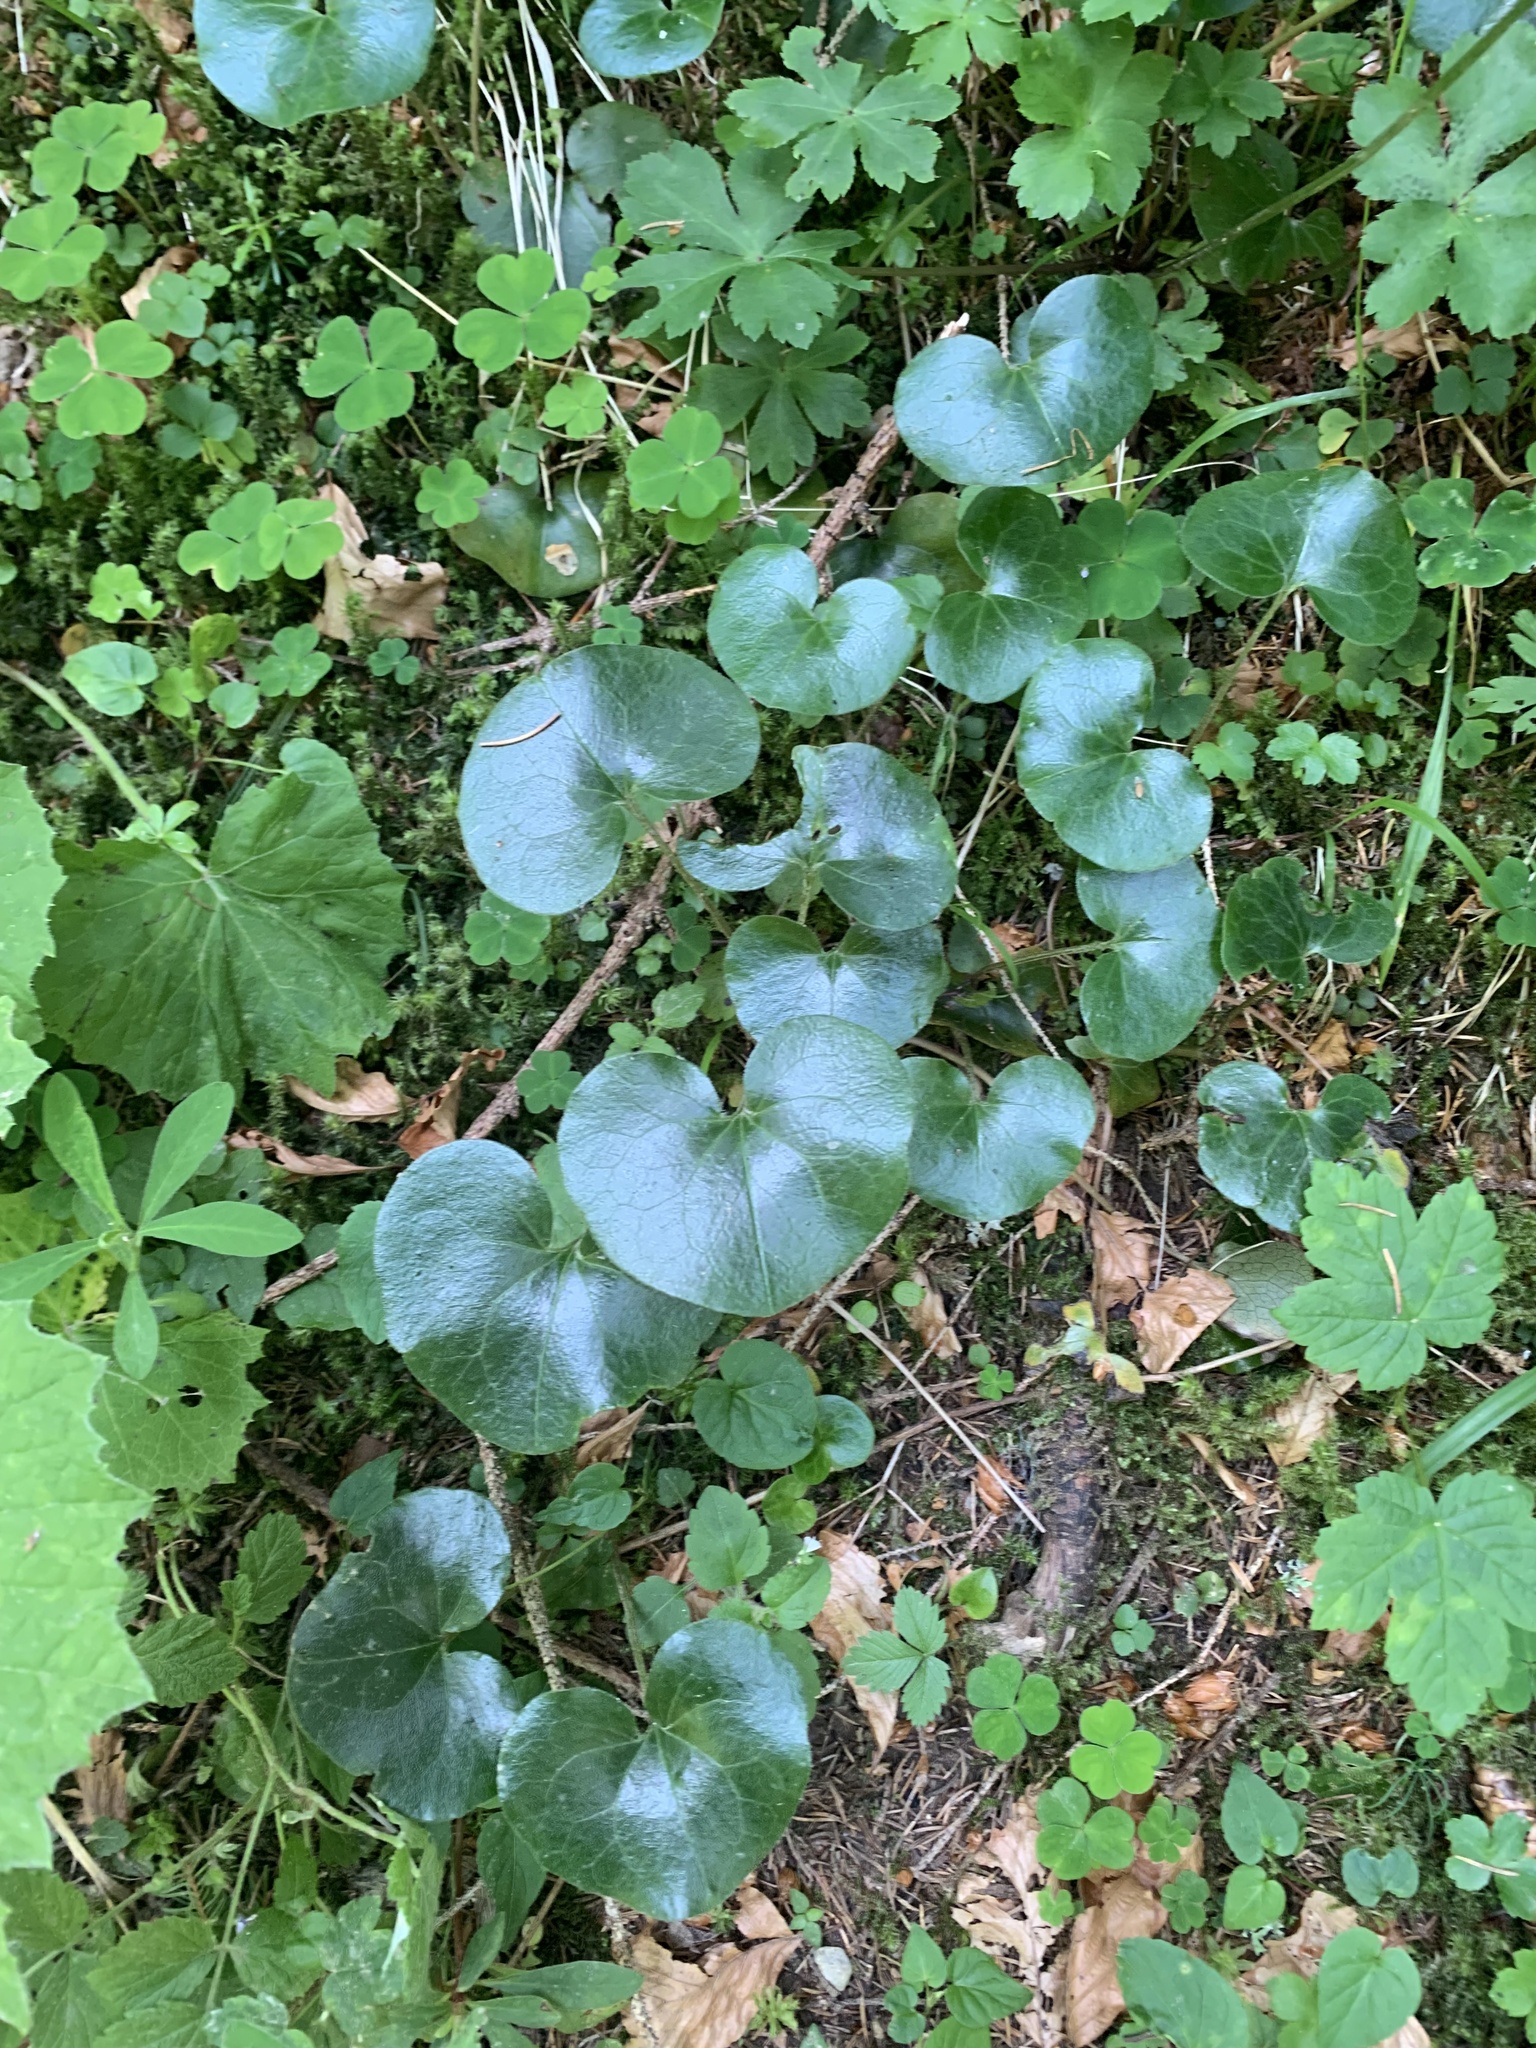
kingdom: Plantae
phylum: Tracheophyta
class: Magnoliopsida
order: Piperales
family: Aristolochiaceae
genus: Asarum
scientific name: Asarum europaeum
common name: Asarabacca
